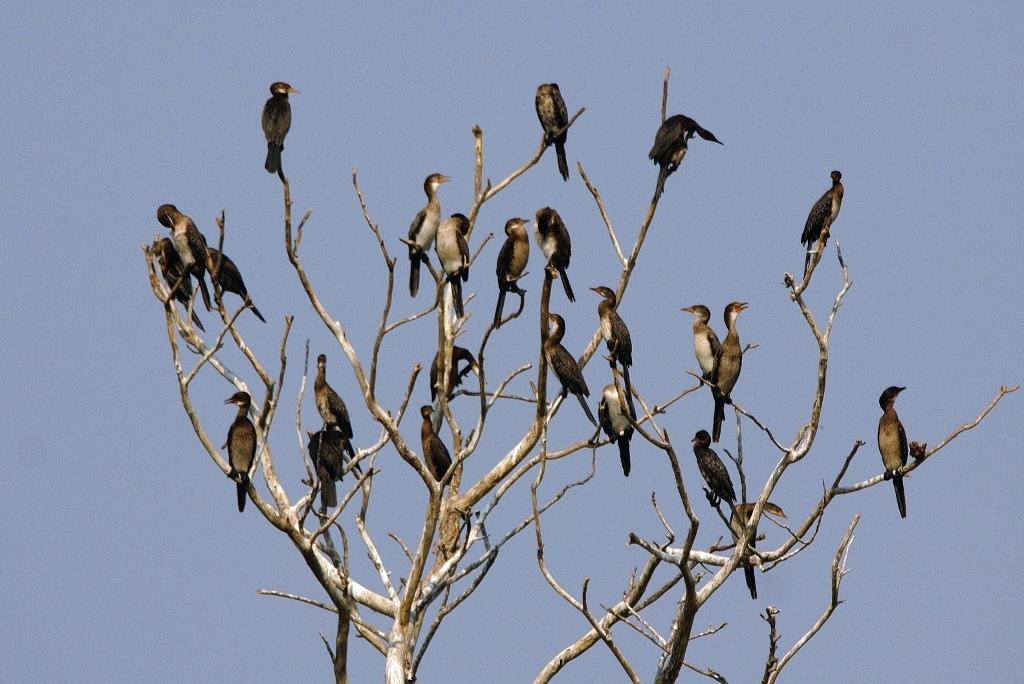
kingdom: Animalia
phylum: Chordata
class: Aves
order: Suliformes
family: Phalacrocoracidae
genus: Microcarbo
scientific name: Microcarbo africanus
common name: Long-tailed cormorant
